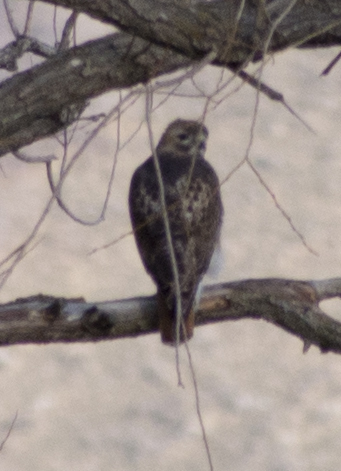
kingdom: Animalia
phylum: Chordata
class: Aves
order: Accipitriformes
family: Accipitridae
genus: Buteo
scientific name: Buteo jamaicensis
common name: Red-tailed hawk
